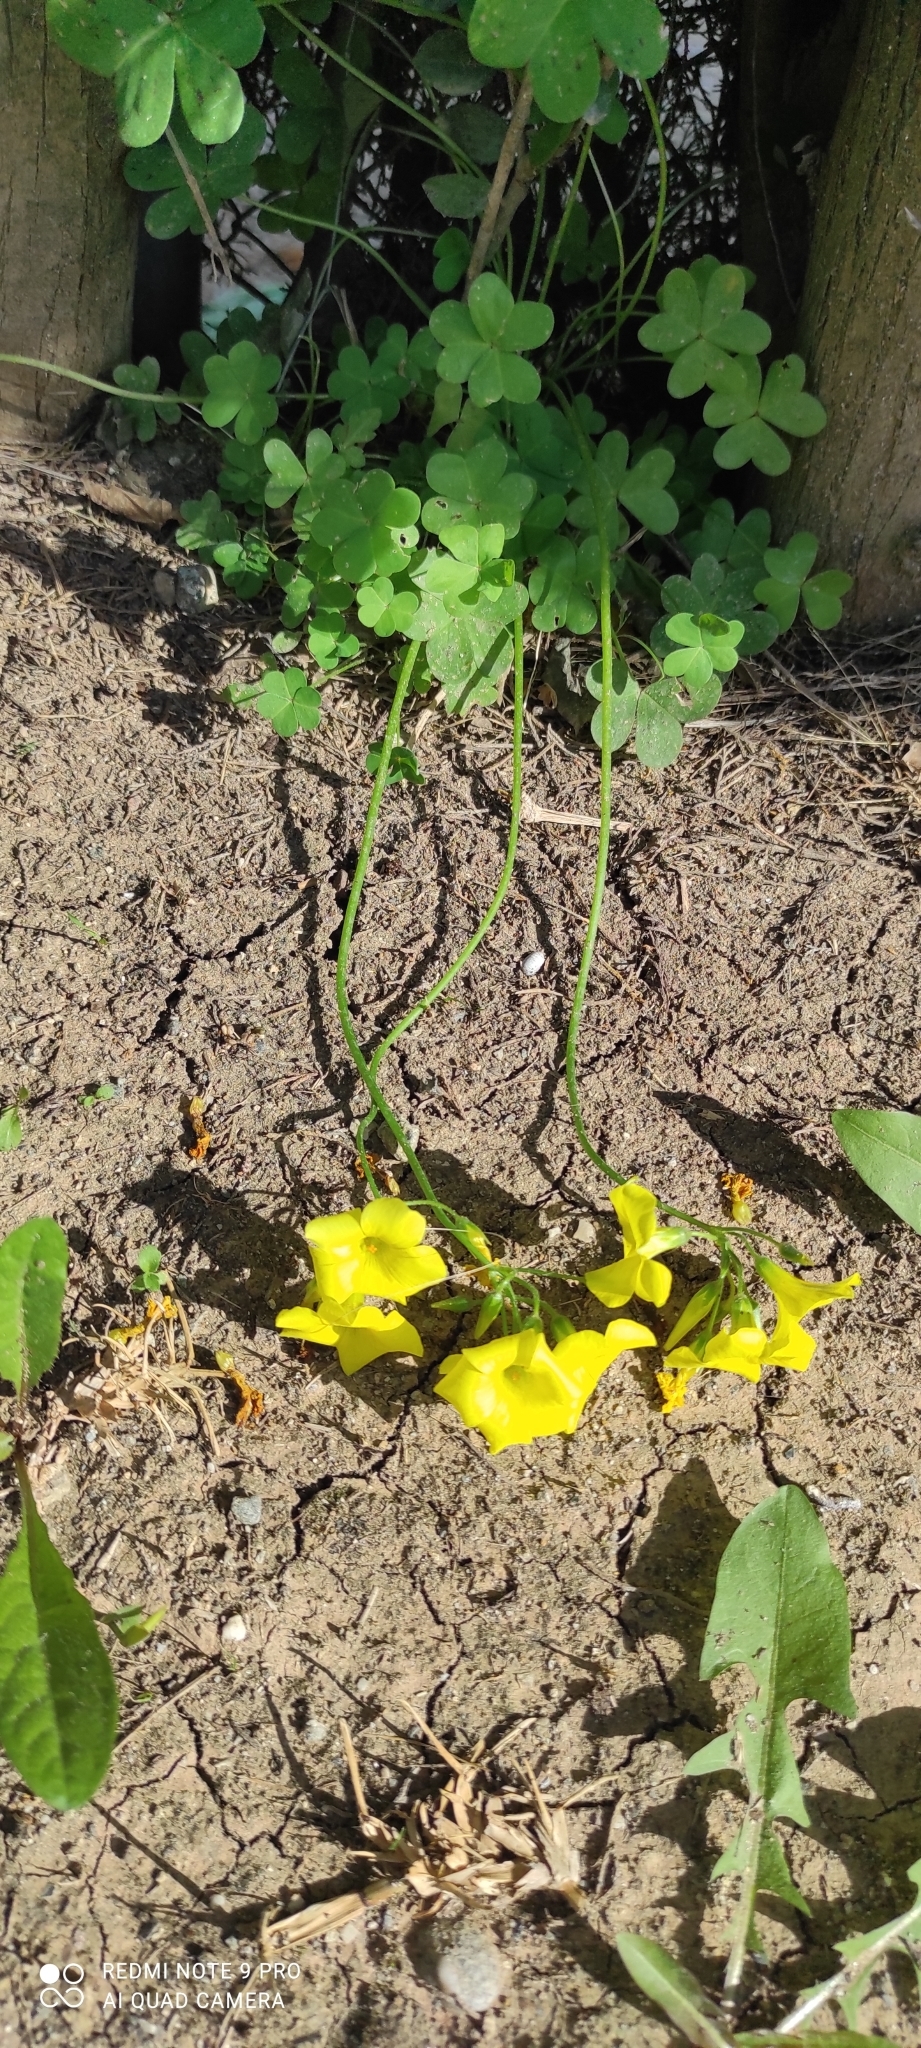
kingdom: Plantae
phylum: Tracheophyta
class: Magnoliopsida
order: Oxalidales
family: Oxalidaceae
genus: Oxalis
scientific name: Oxalis pes-caprae
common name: Bermuda-buttercup
